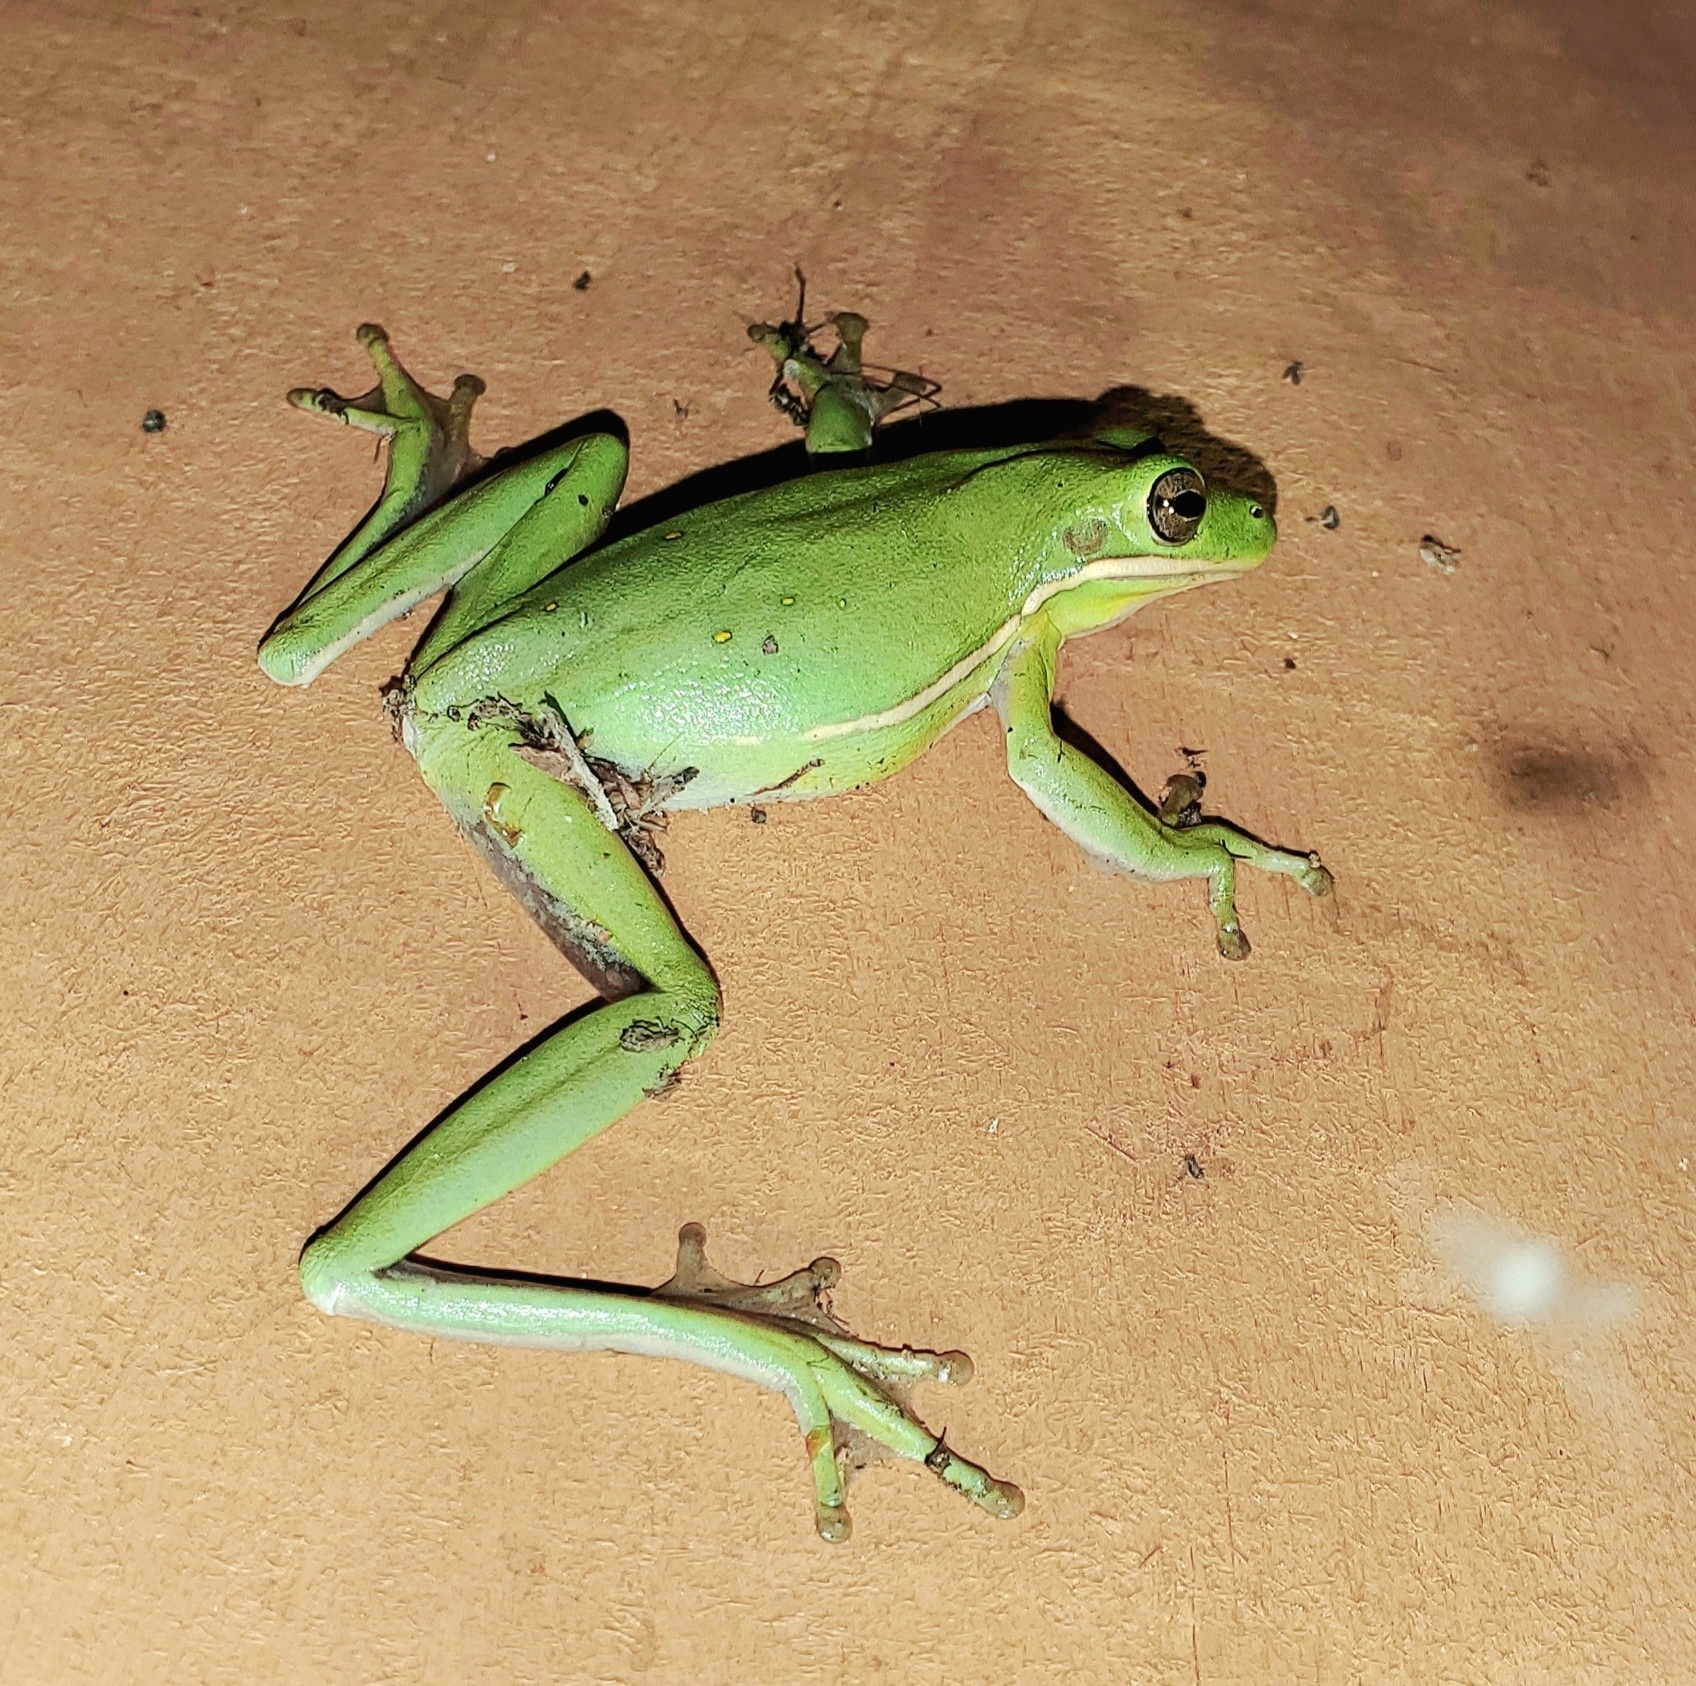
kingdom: Animalia
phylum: Chordata
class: Amphibia
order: Anura
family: Hylidae
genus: Dryophytes
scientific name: Dryophytes cinereus
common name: Green treefrog
